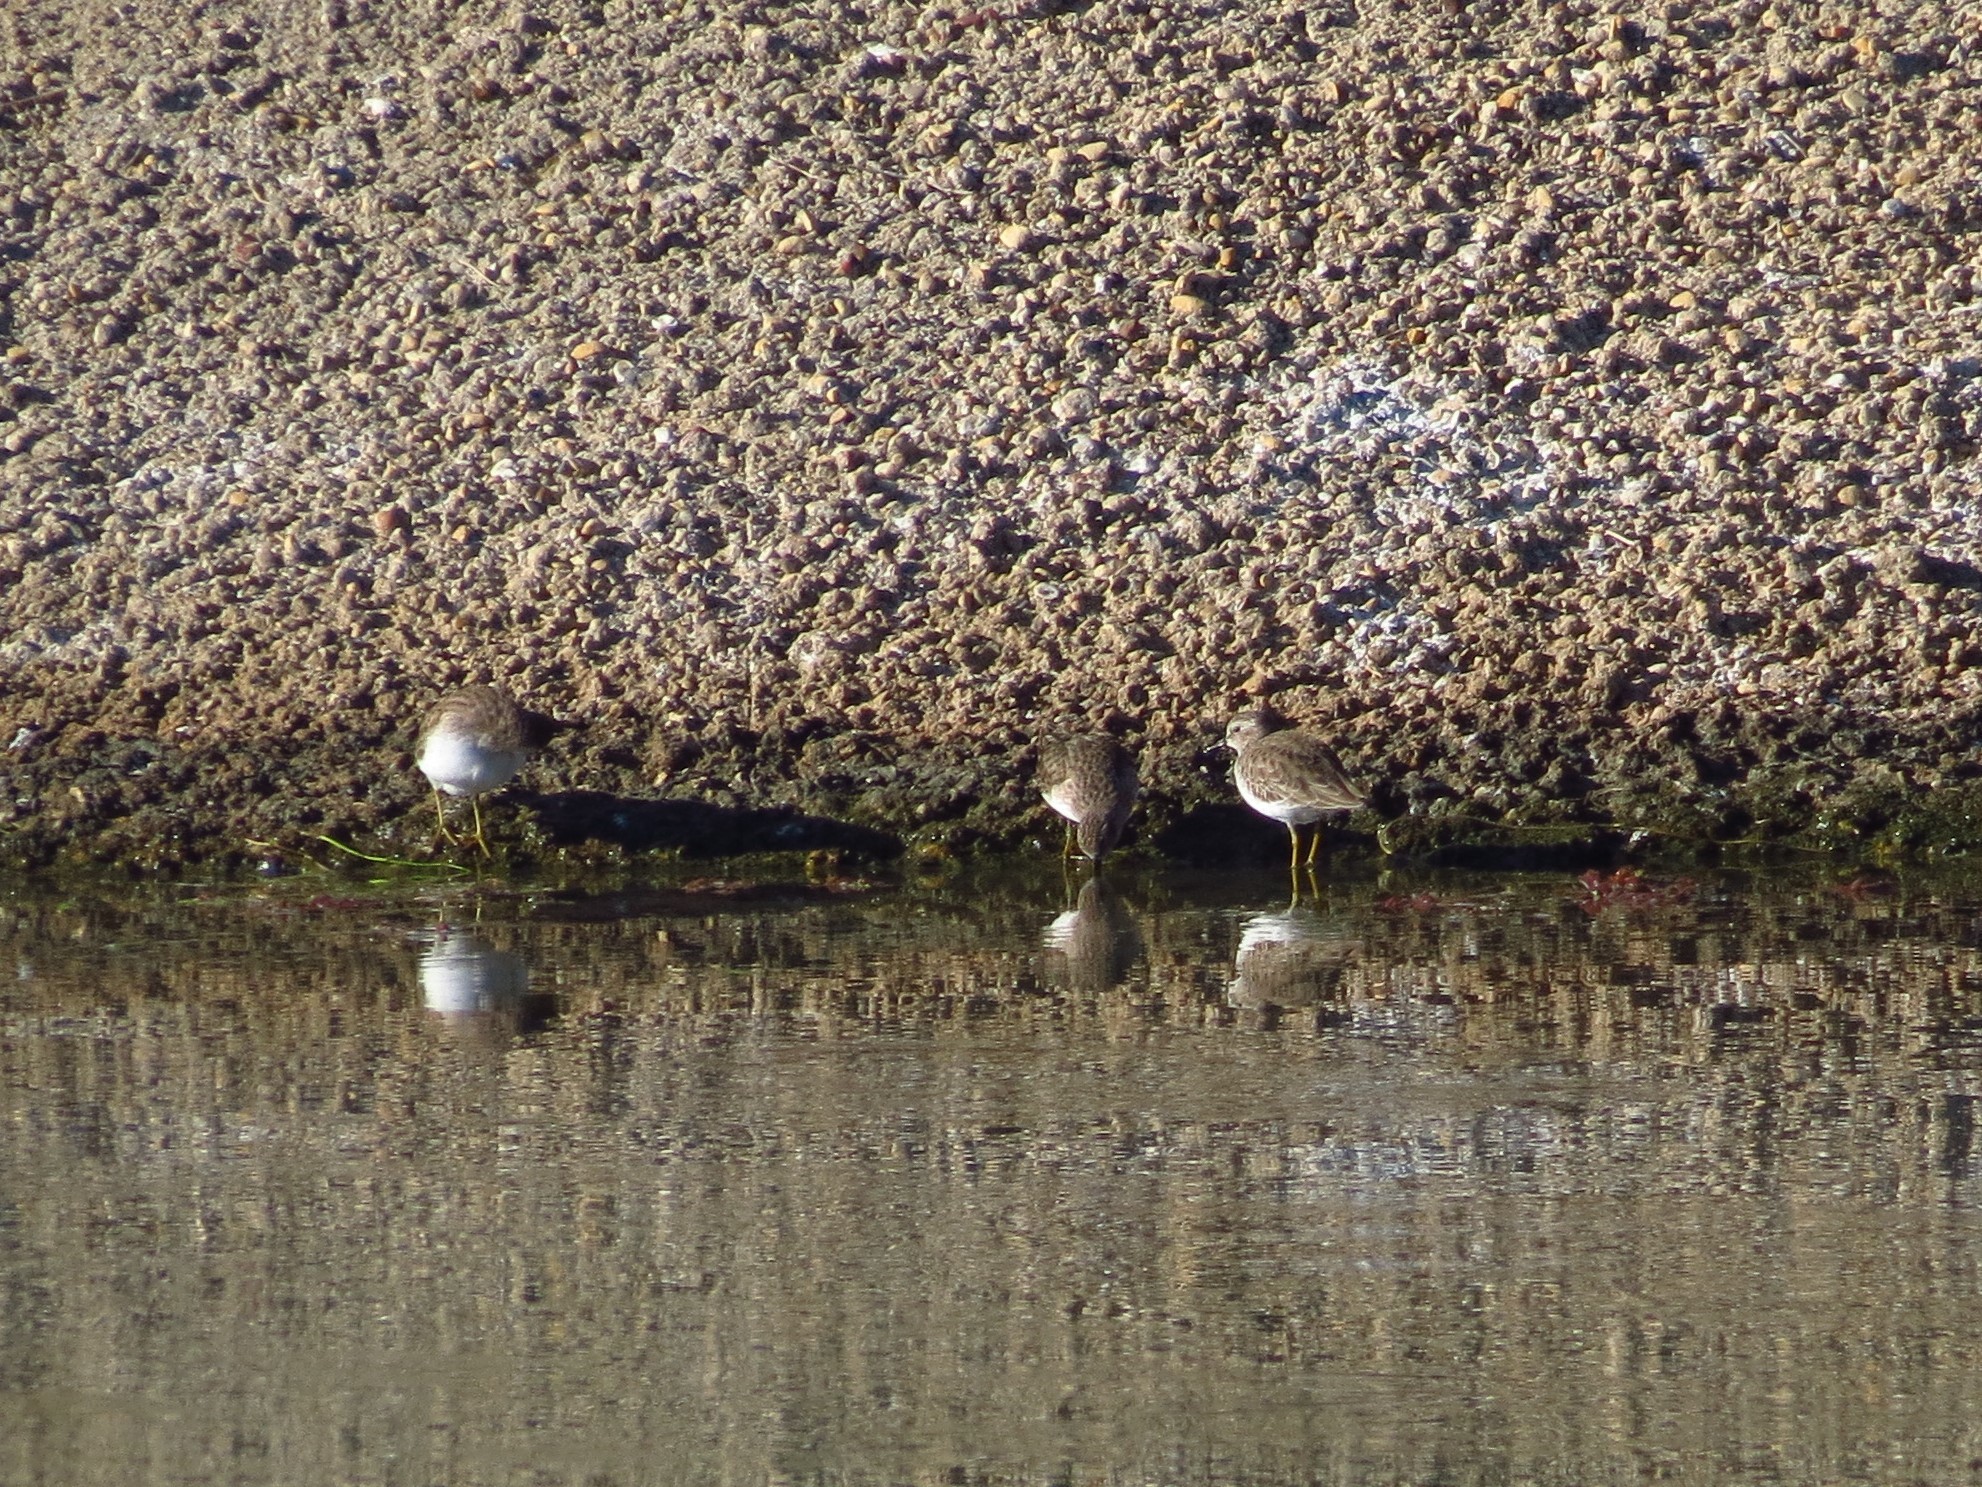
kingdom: Animalia
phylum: Chordata
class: Aves
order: Charadriiformes
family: Scolopacidae
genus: Calidris
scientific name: Calidris minutilla
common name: Least sandpiper
